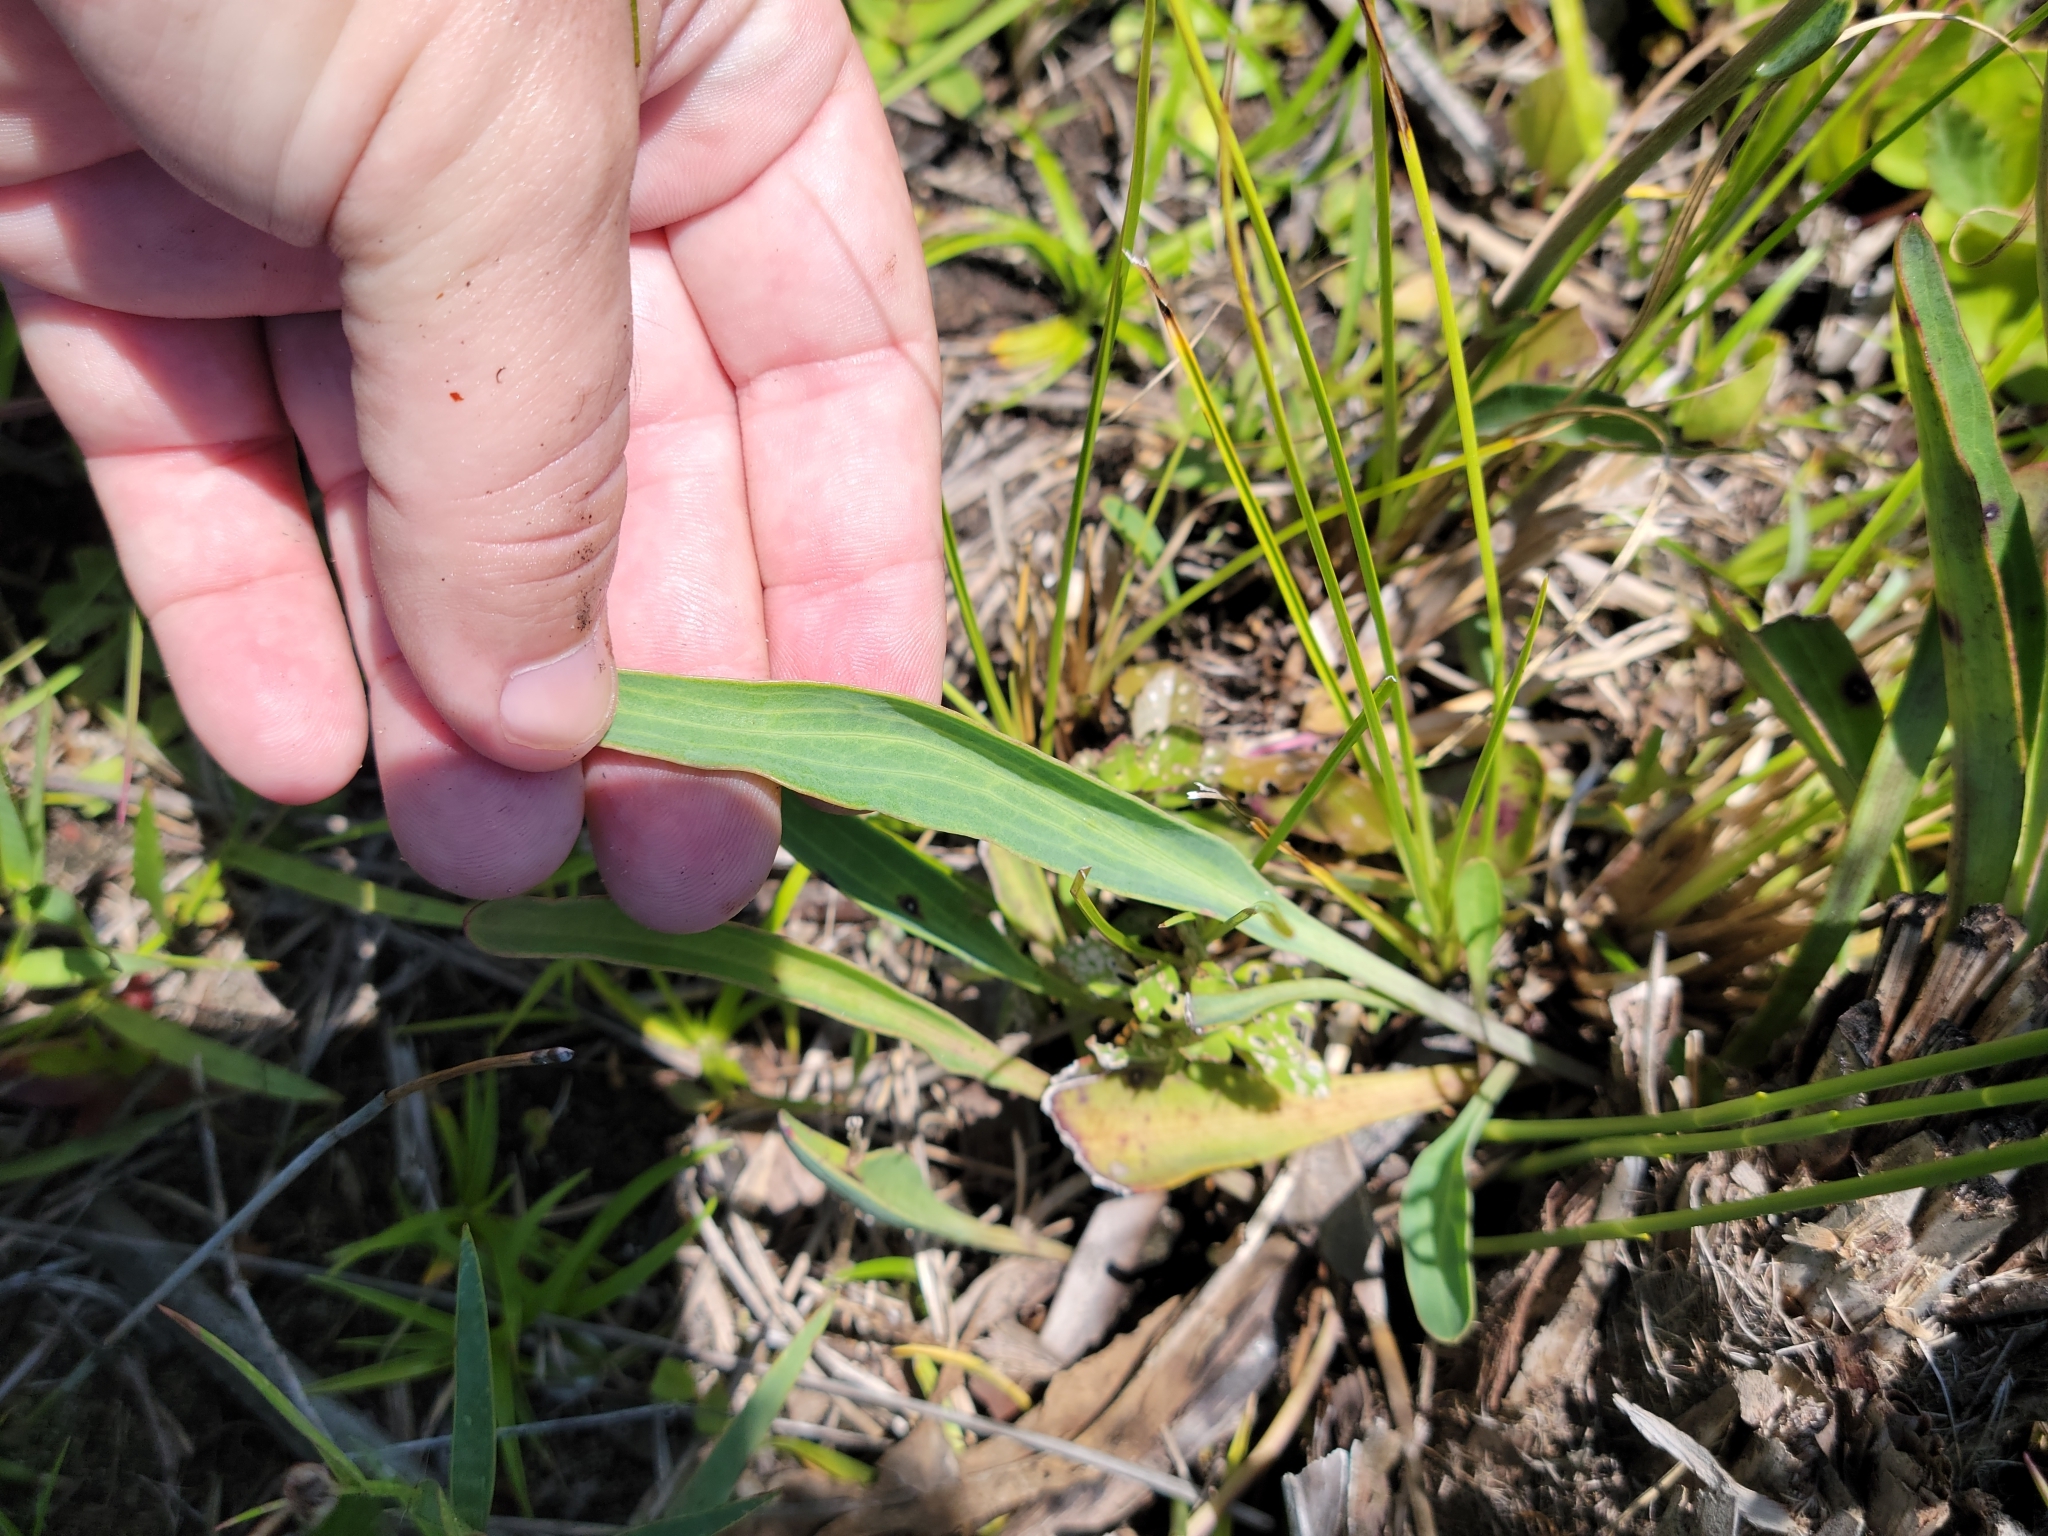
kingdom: Plantae
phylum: Tracheophyta
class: Magnoliopsida
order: Asterales
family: Asteraceae
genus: Arnoglossum
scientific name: Arnoglossum ovatum
